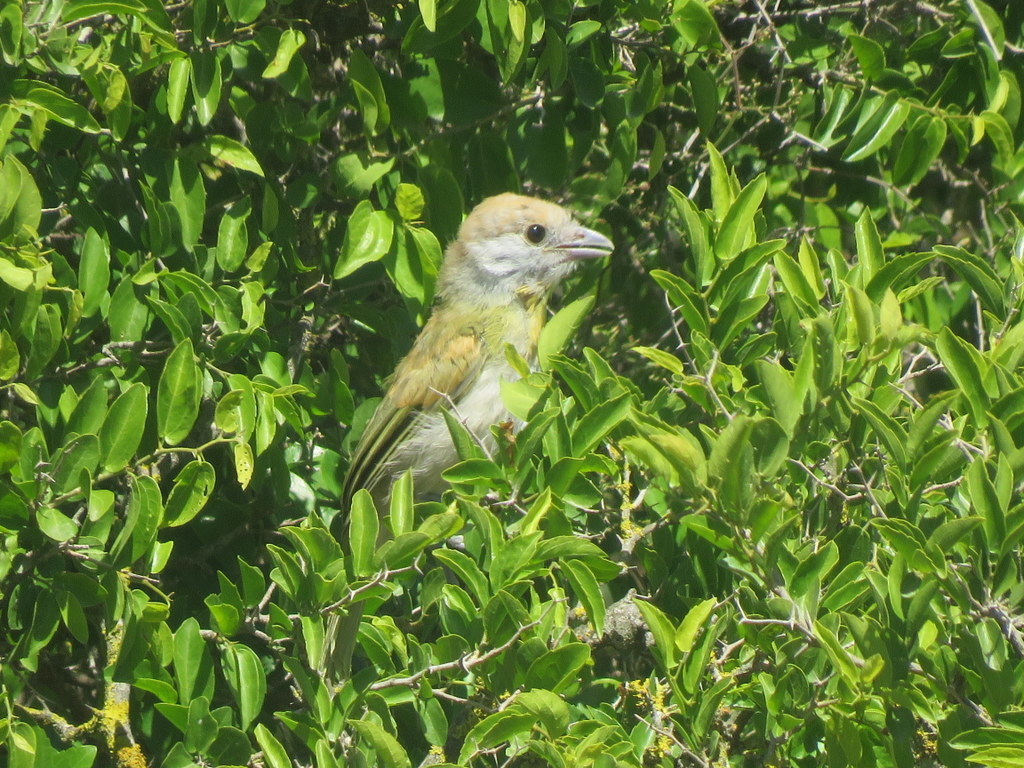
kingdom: Animalia
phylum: Chordata
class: Aves
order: Passeriformes
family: Vireonidae
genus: Cyclarhis
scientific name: Cyclarhis gujanensis
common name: Rufous-browed peppershrike
